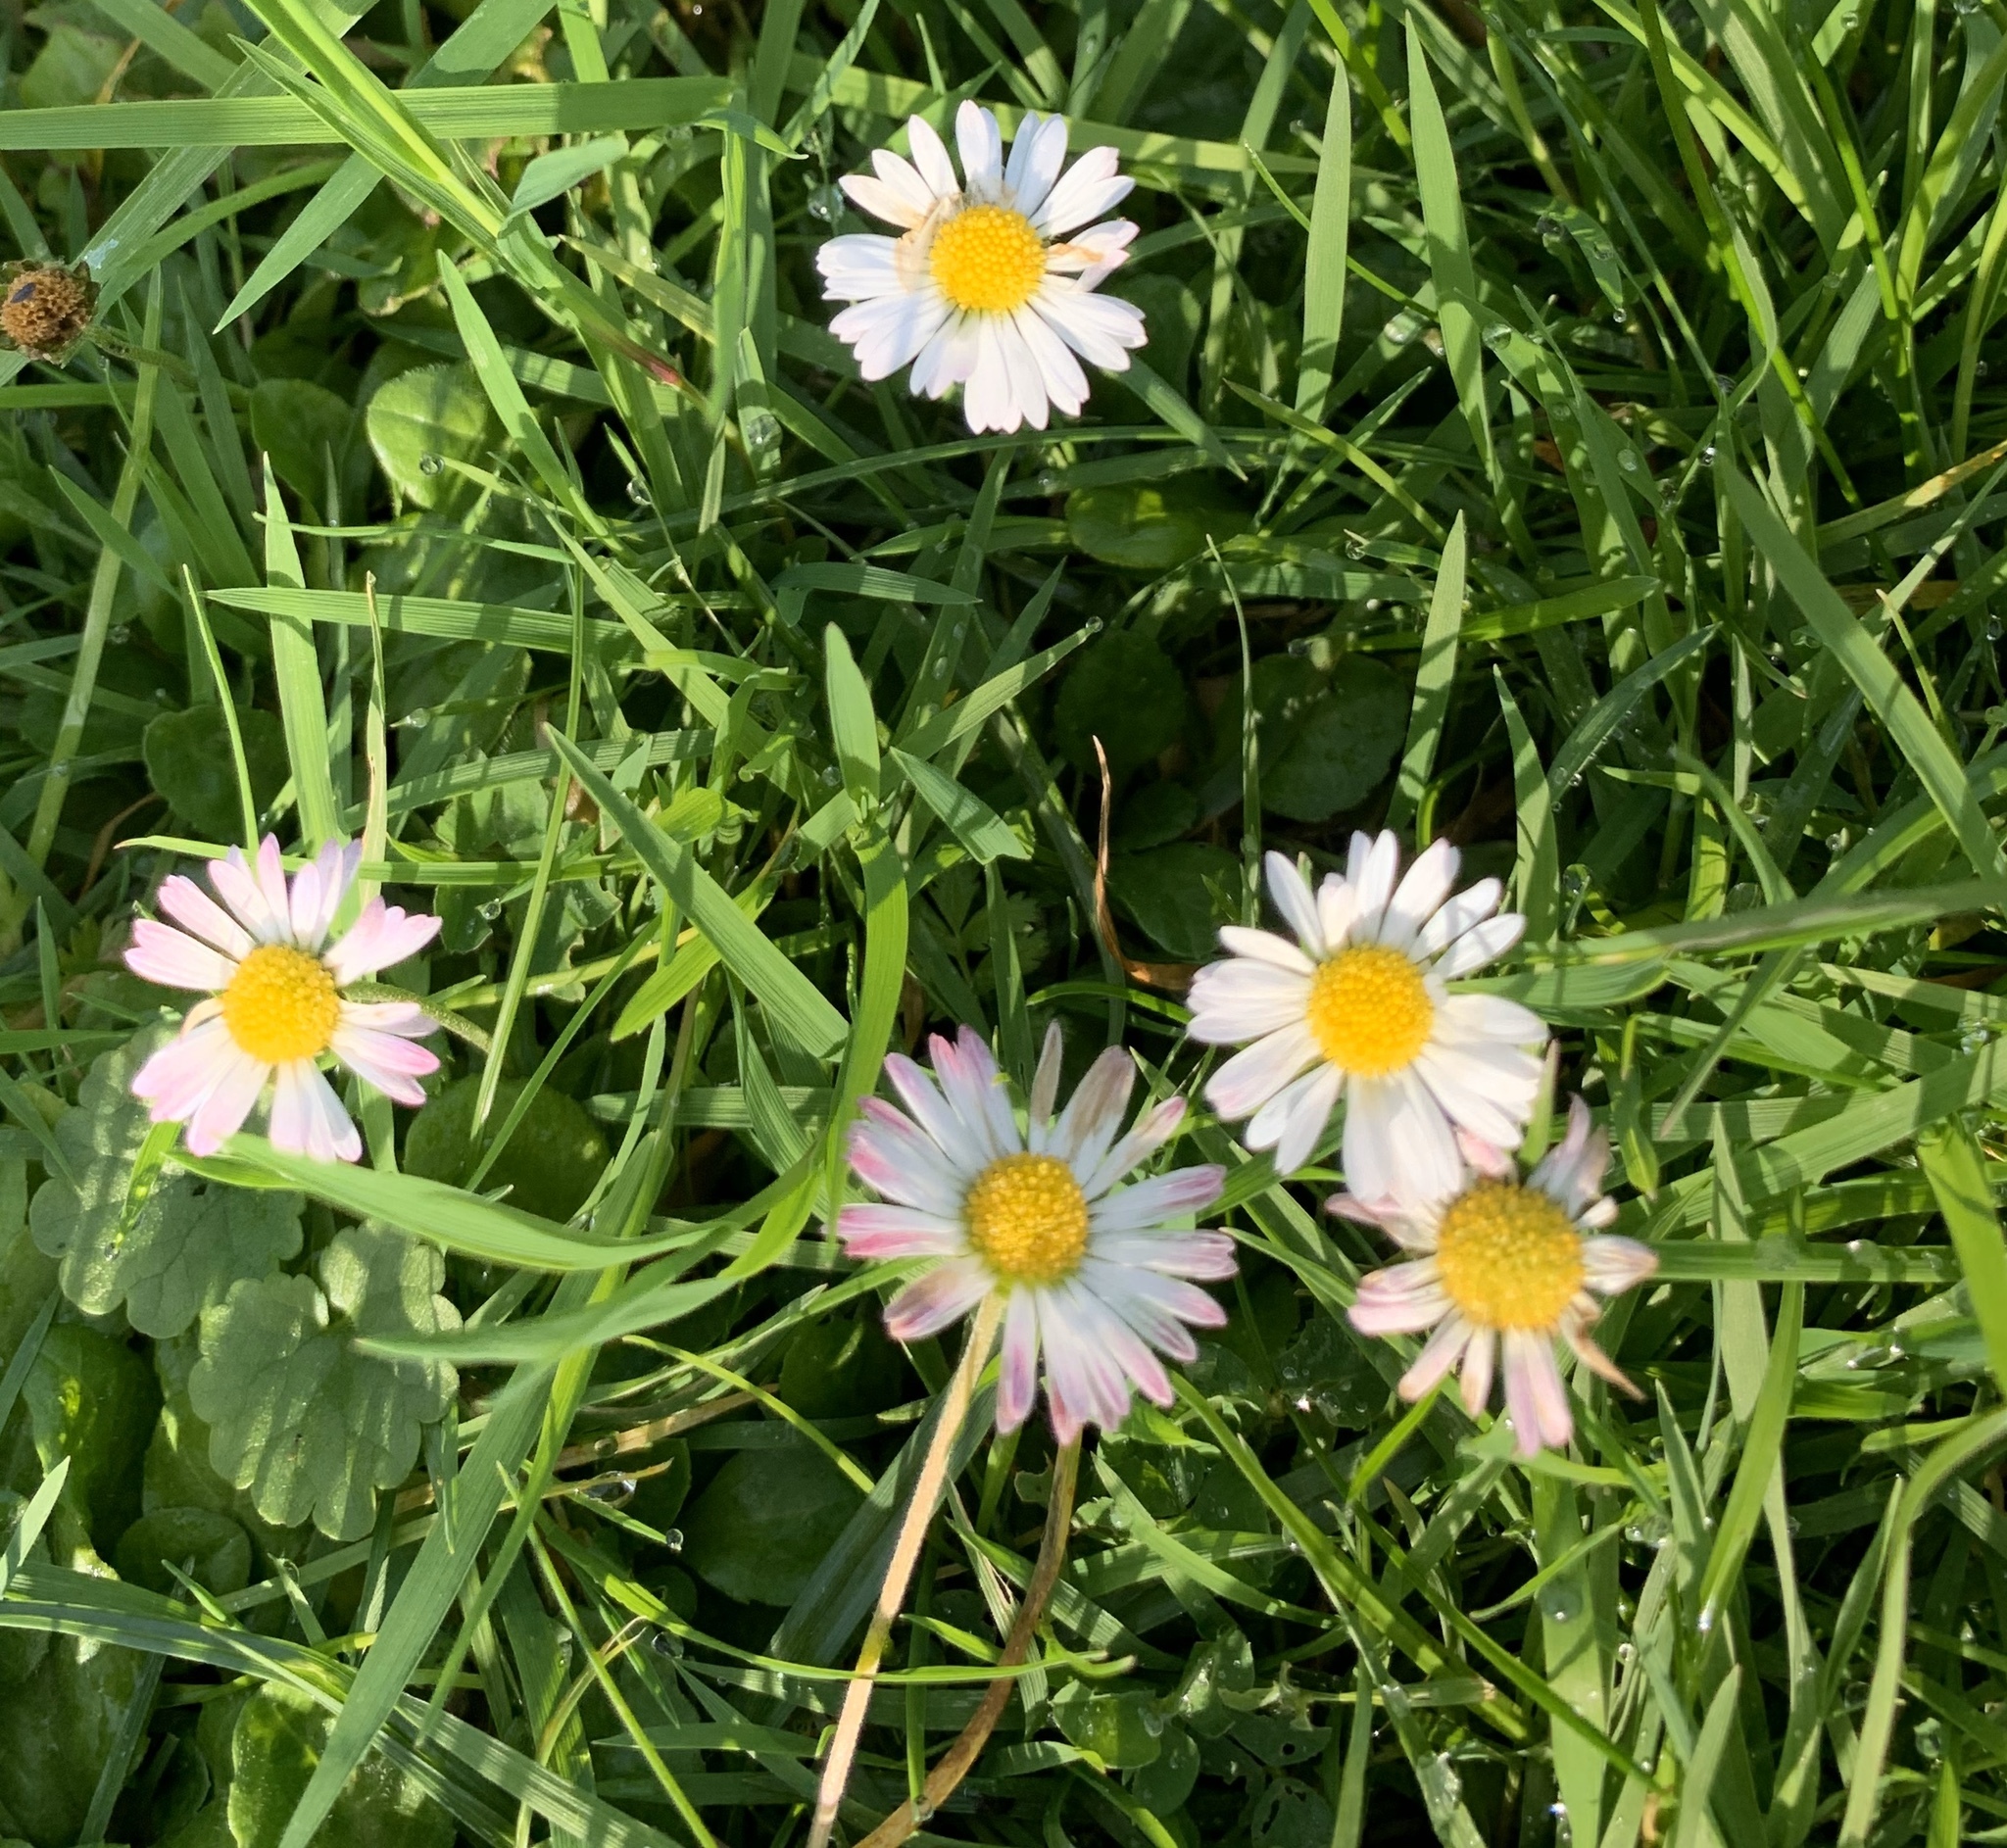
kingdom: Plantae
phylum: Tracheophyta
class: Magnoliopsida
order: Asterales
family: Asteraceae
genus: Bellis
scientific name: Bellis perennis
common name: Lawndaisy
